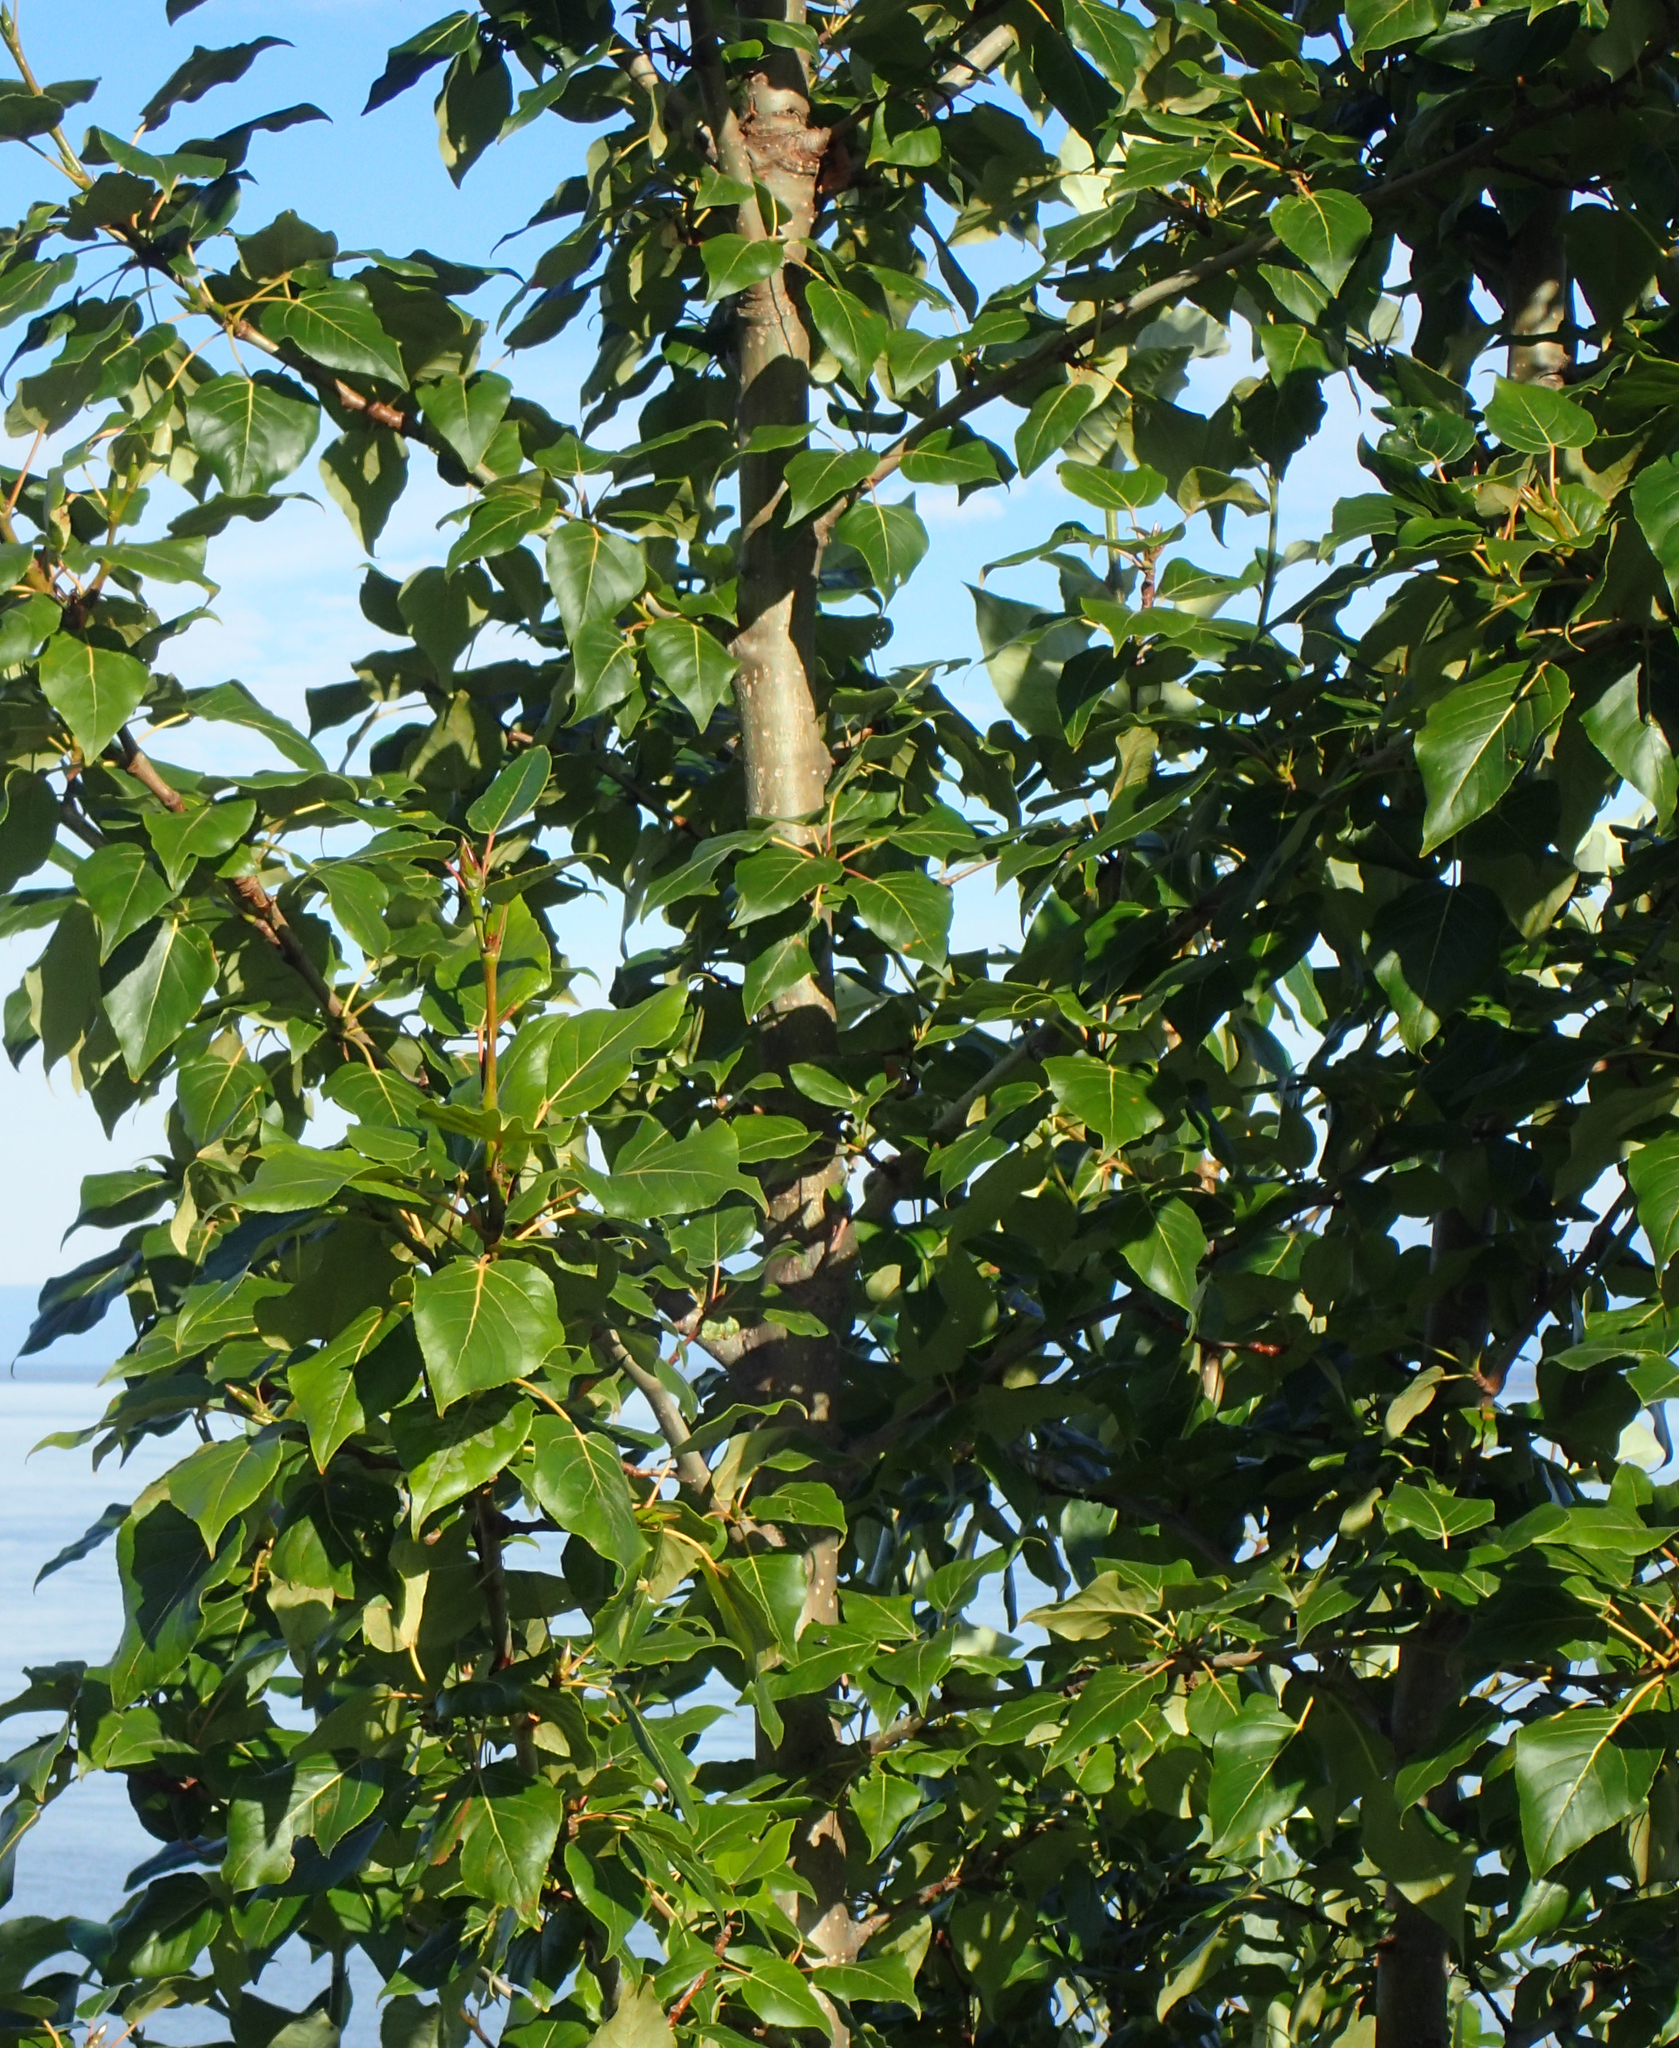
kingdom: Plantae
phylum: Tracheophyta
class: Magnoliopsida
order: Malpighiales
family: Salicaceae
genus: Populus
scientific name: Populus trichocarpa
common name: Black cottonwood
